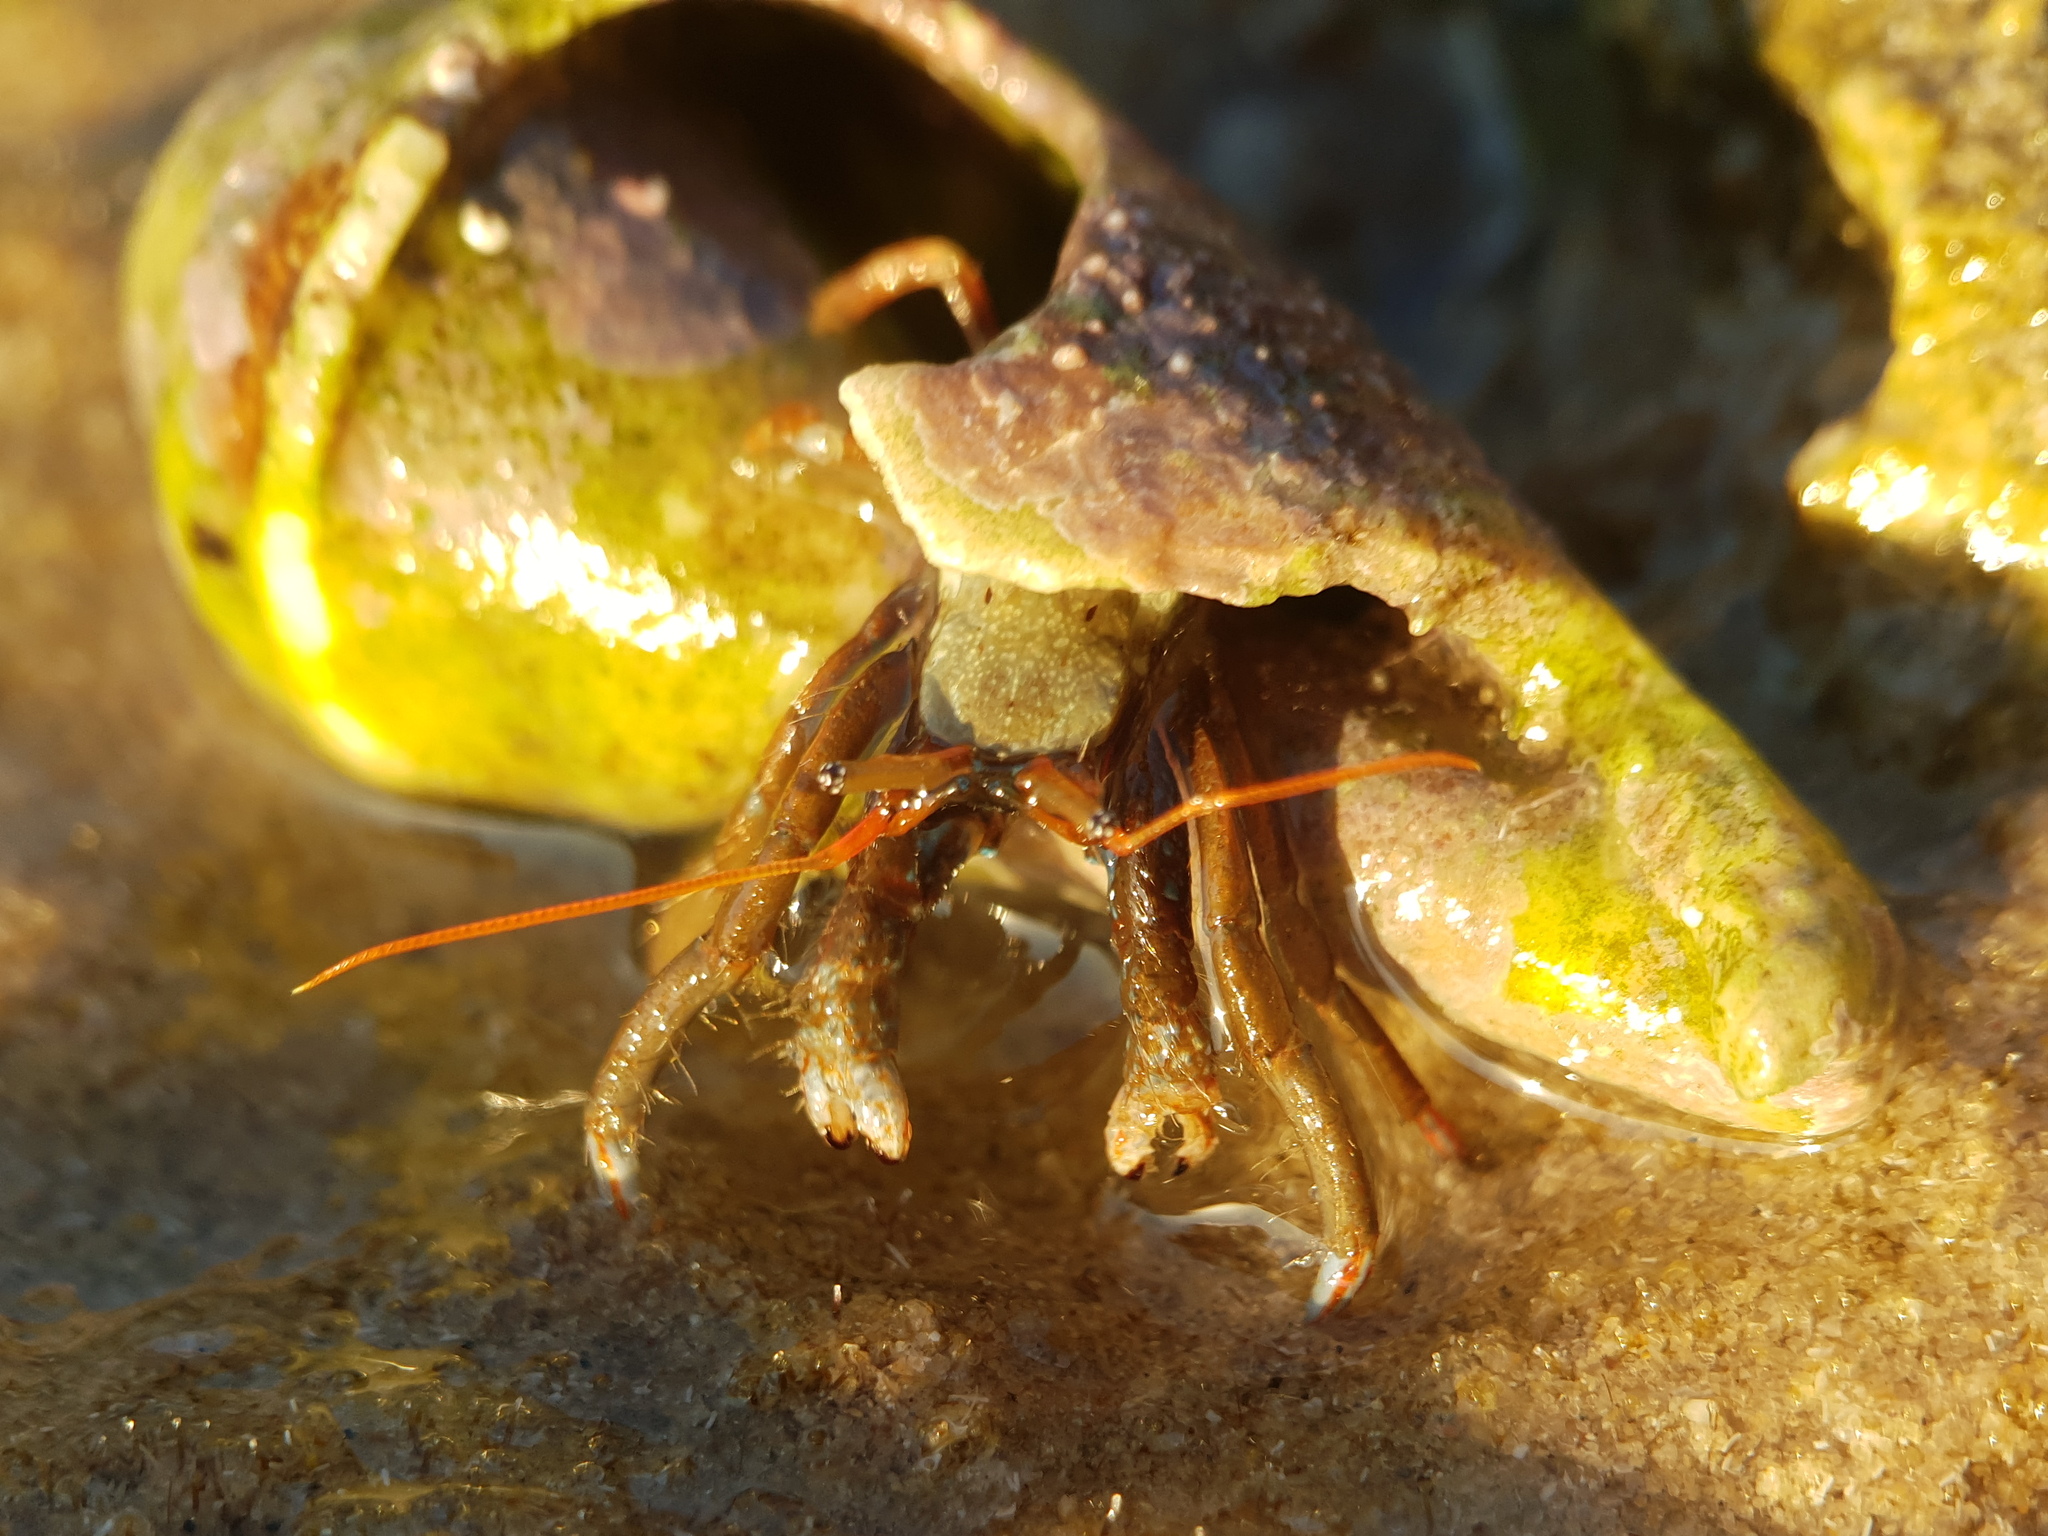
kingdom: Animalia
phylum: Arthropoda
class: Malacostraca
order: Decapoda
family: Diogenidae
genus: Clibanarius
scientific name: Clibanarius erythropus
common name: Hermit crab
